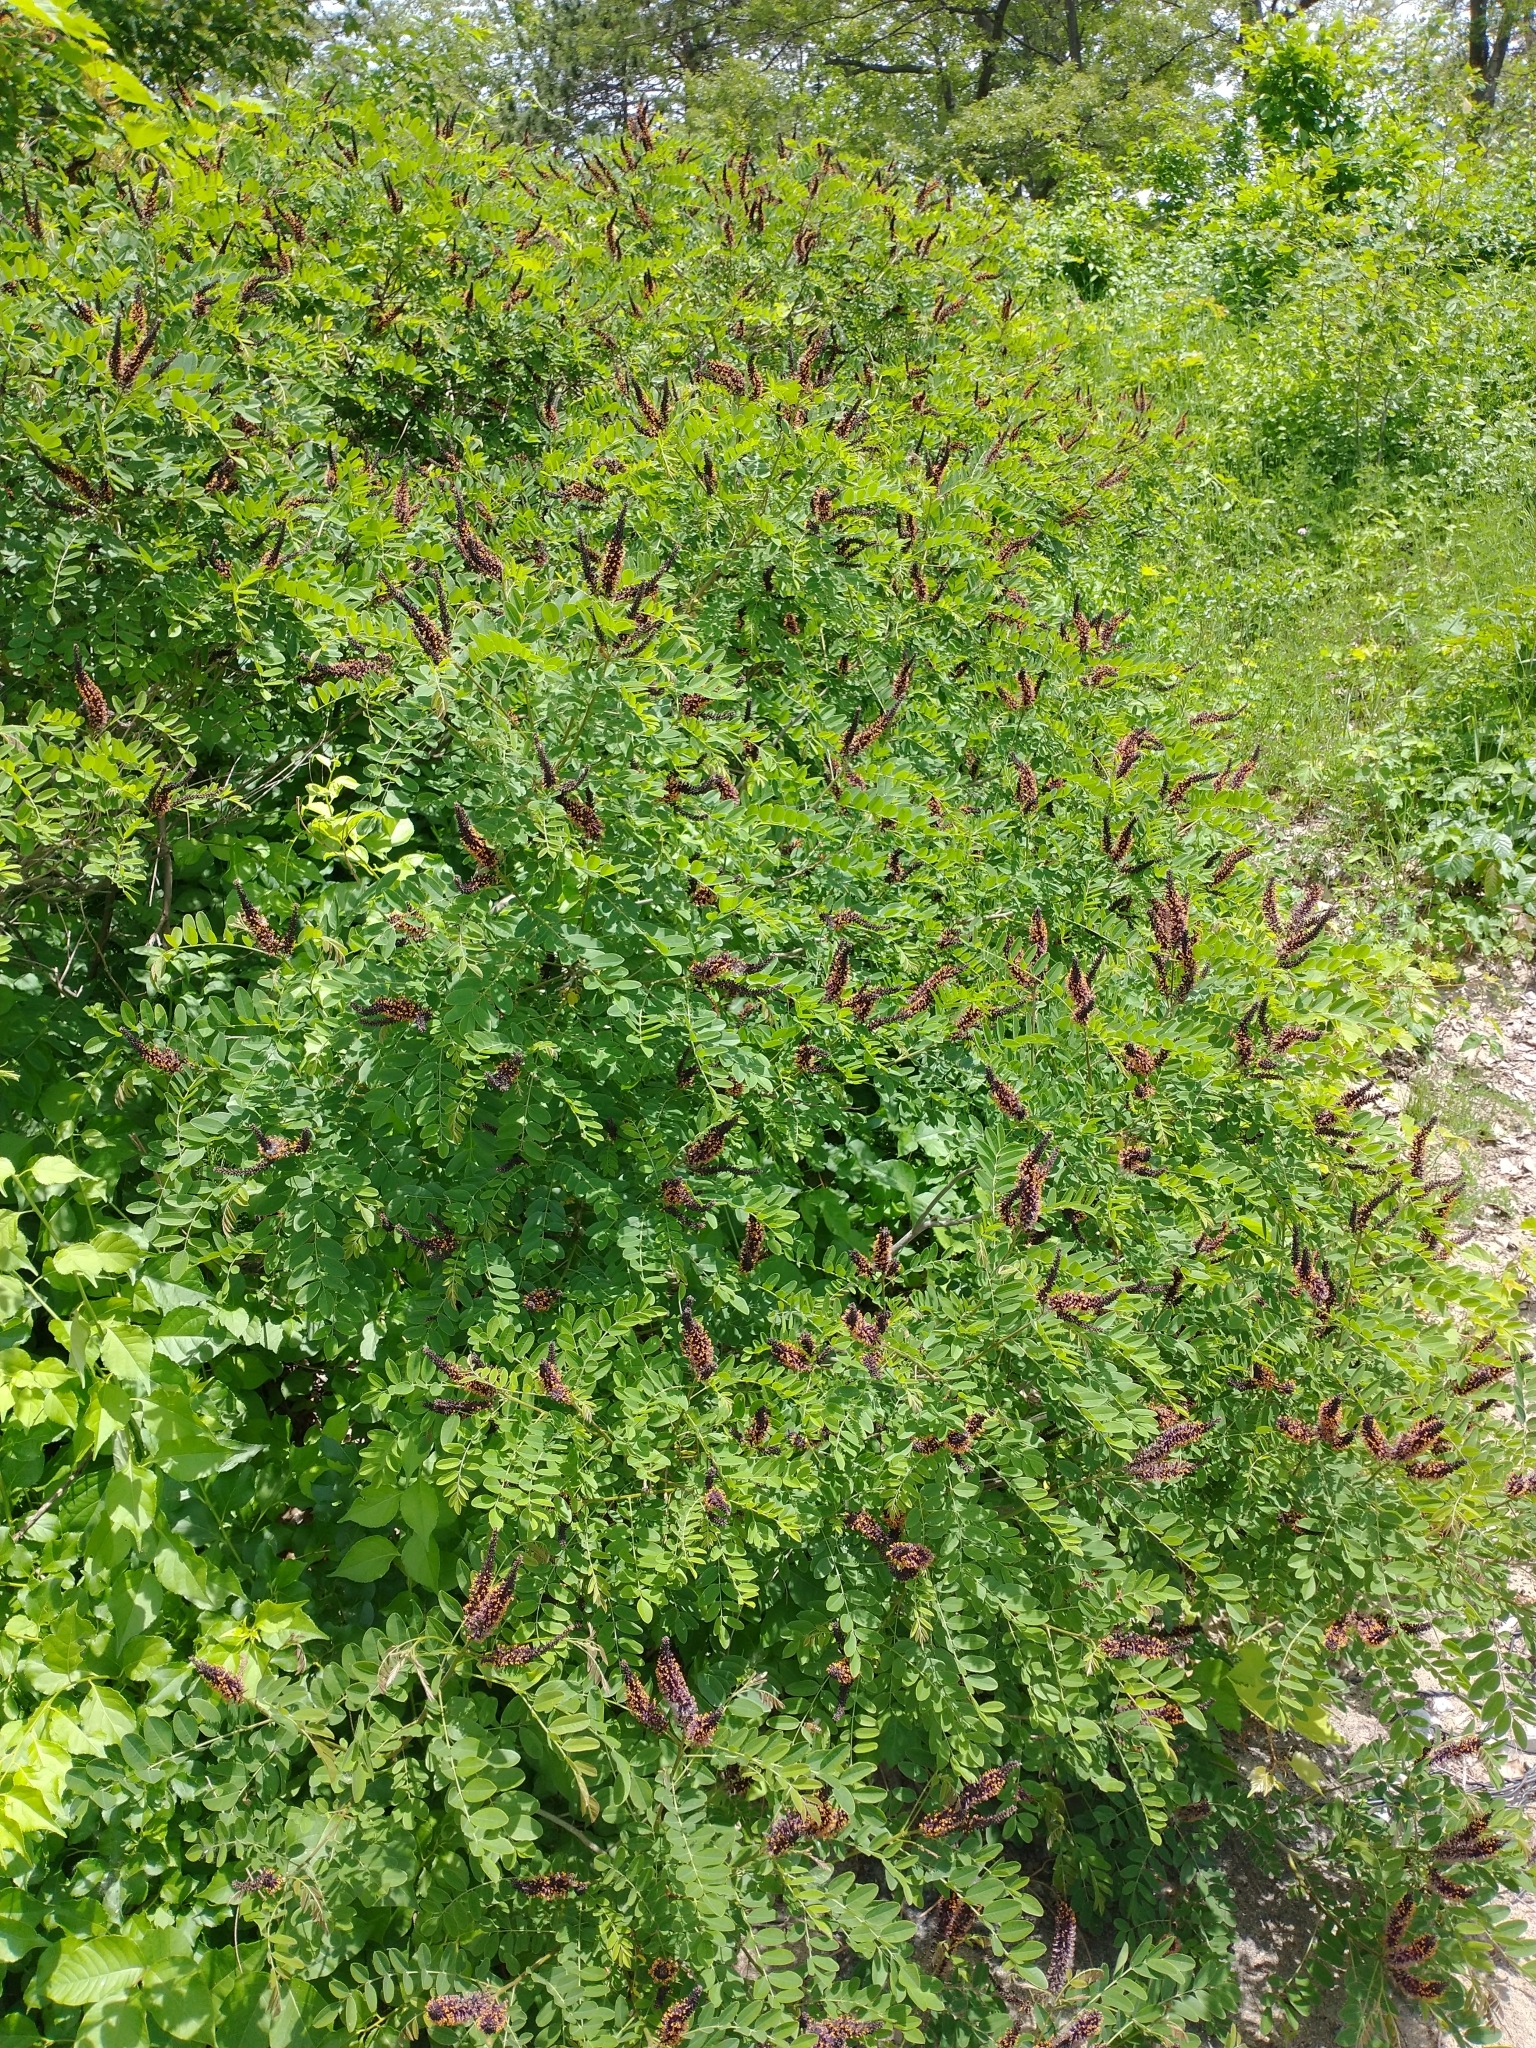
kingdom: Plantae
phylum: Tracheophyta
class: Magnoliopsida
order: Fabales
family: Fabaceae
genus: Amorpha
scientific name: Amorpha fruticosa
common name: False indigo
